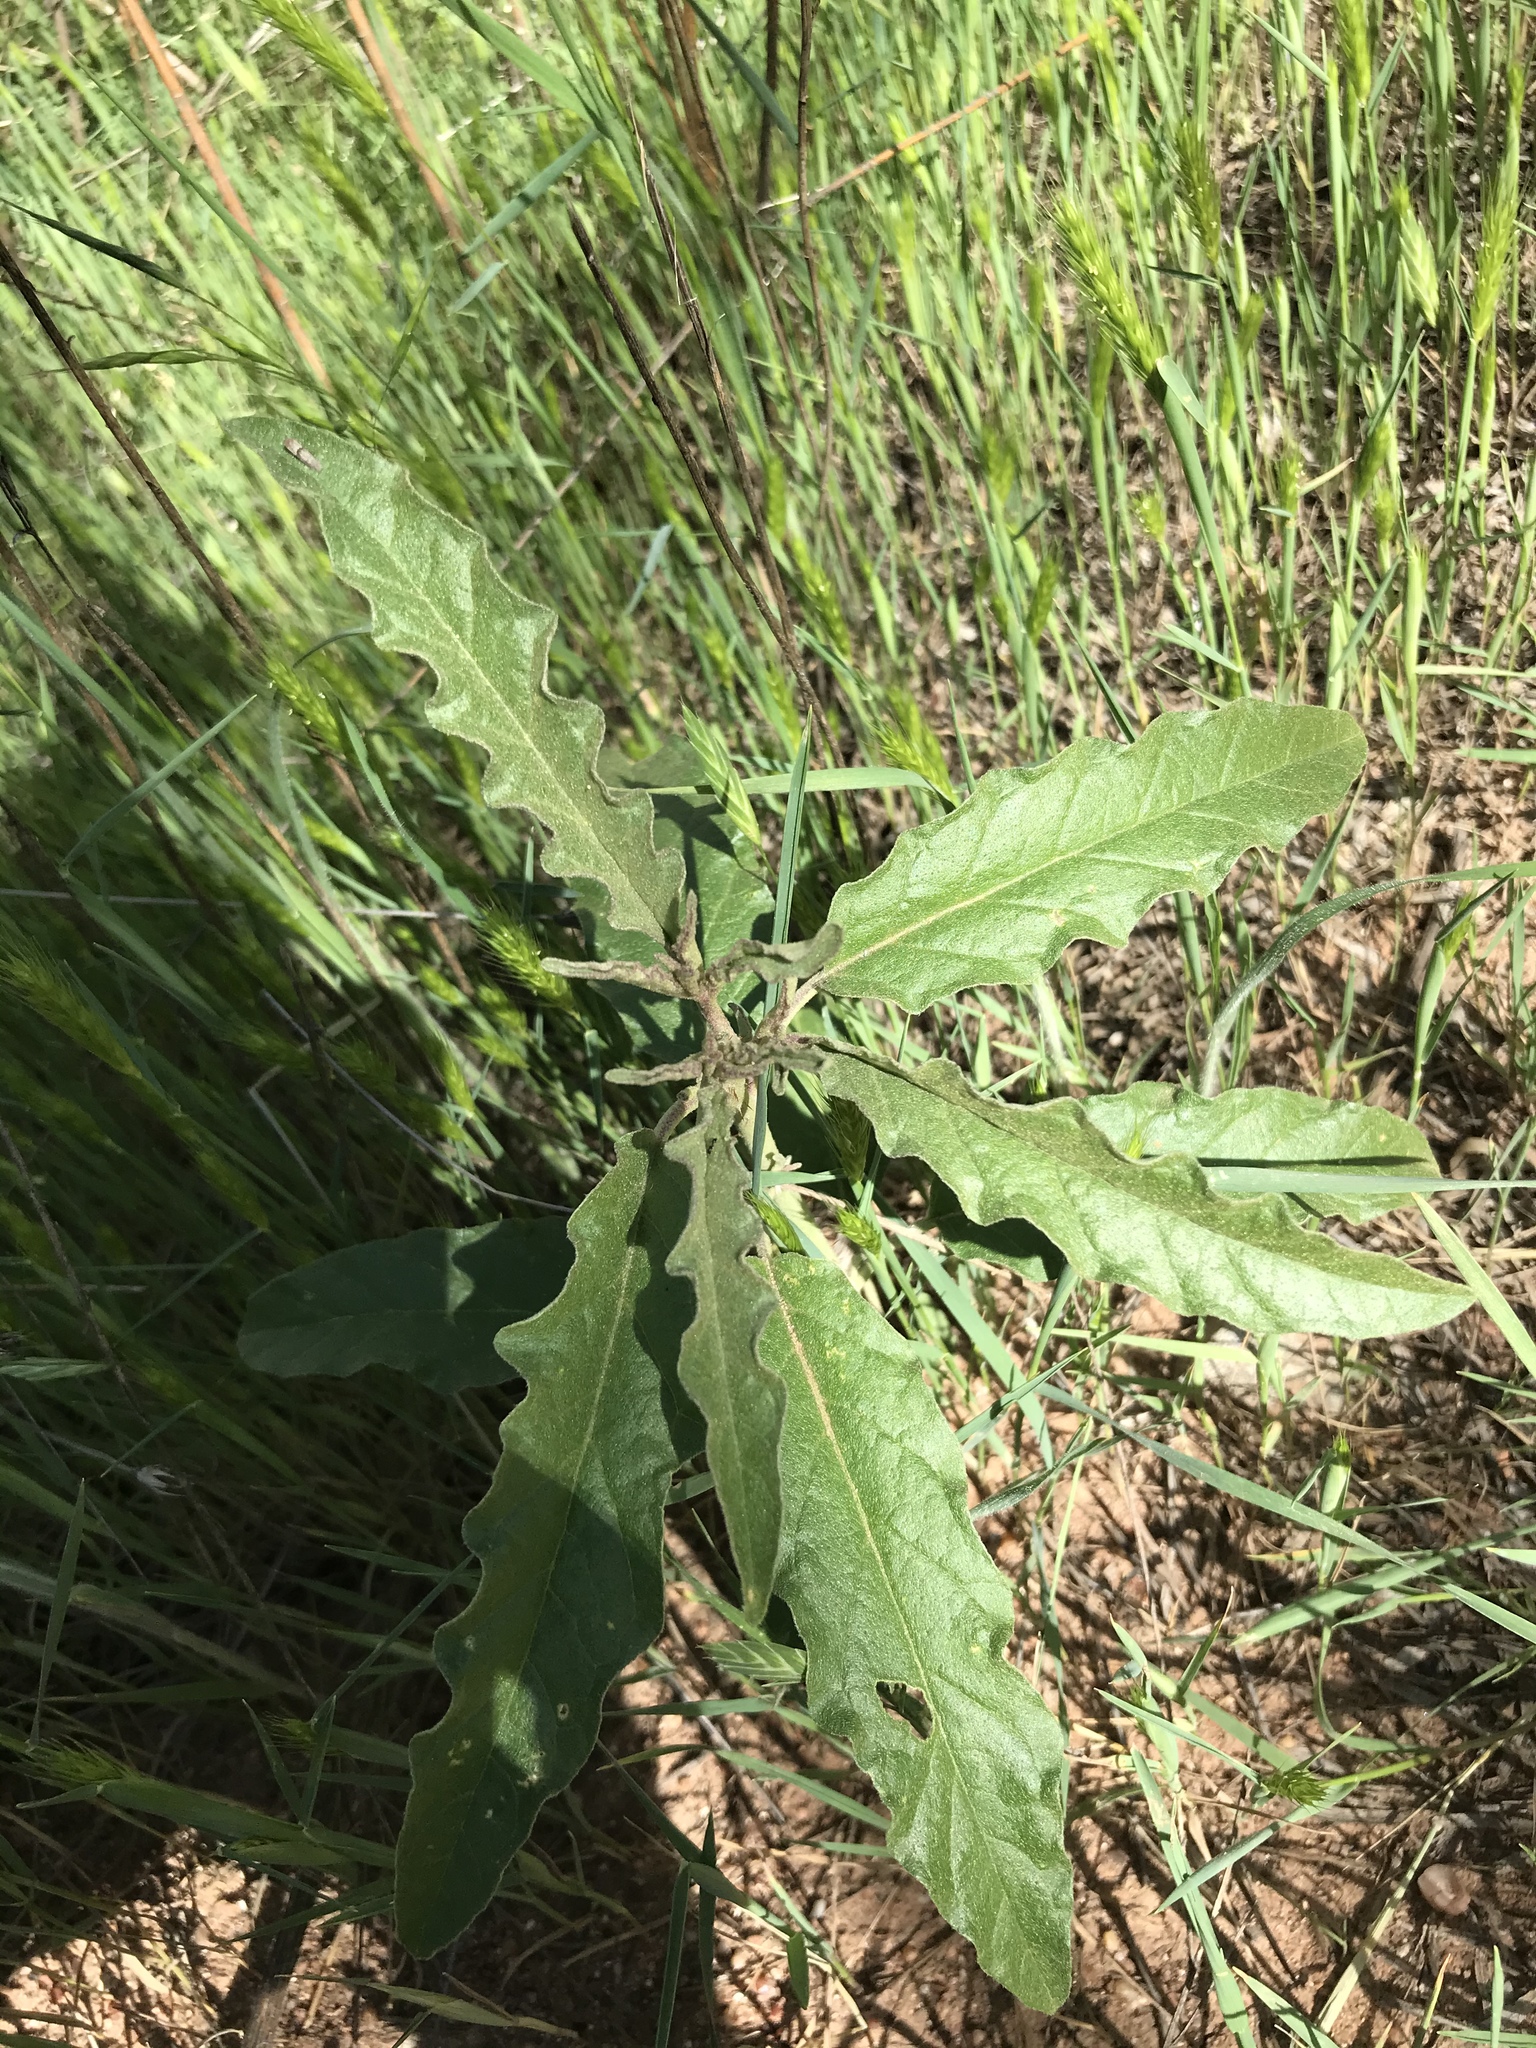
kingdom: Plantae
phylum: Tracheophyta
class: Magnoliopsida
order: Solanales
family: Solanaceae
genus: Solanum
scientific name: Solanum elaeagnifolium
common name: Silverleaf nightshade
